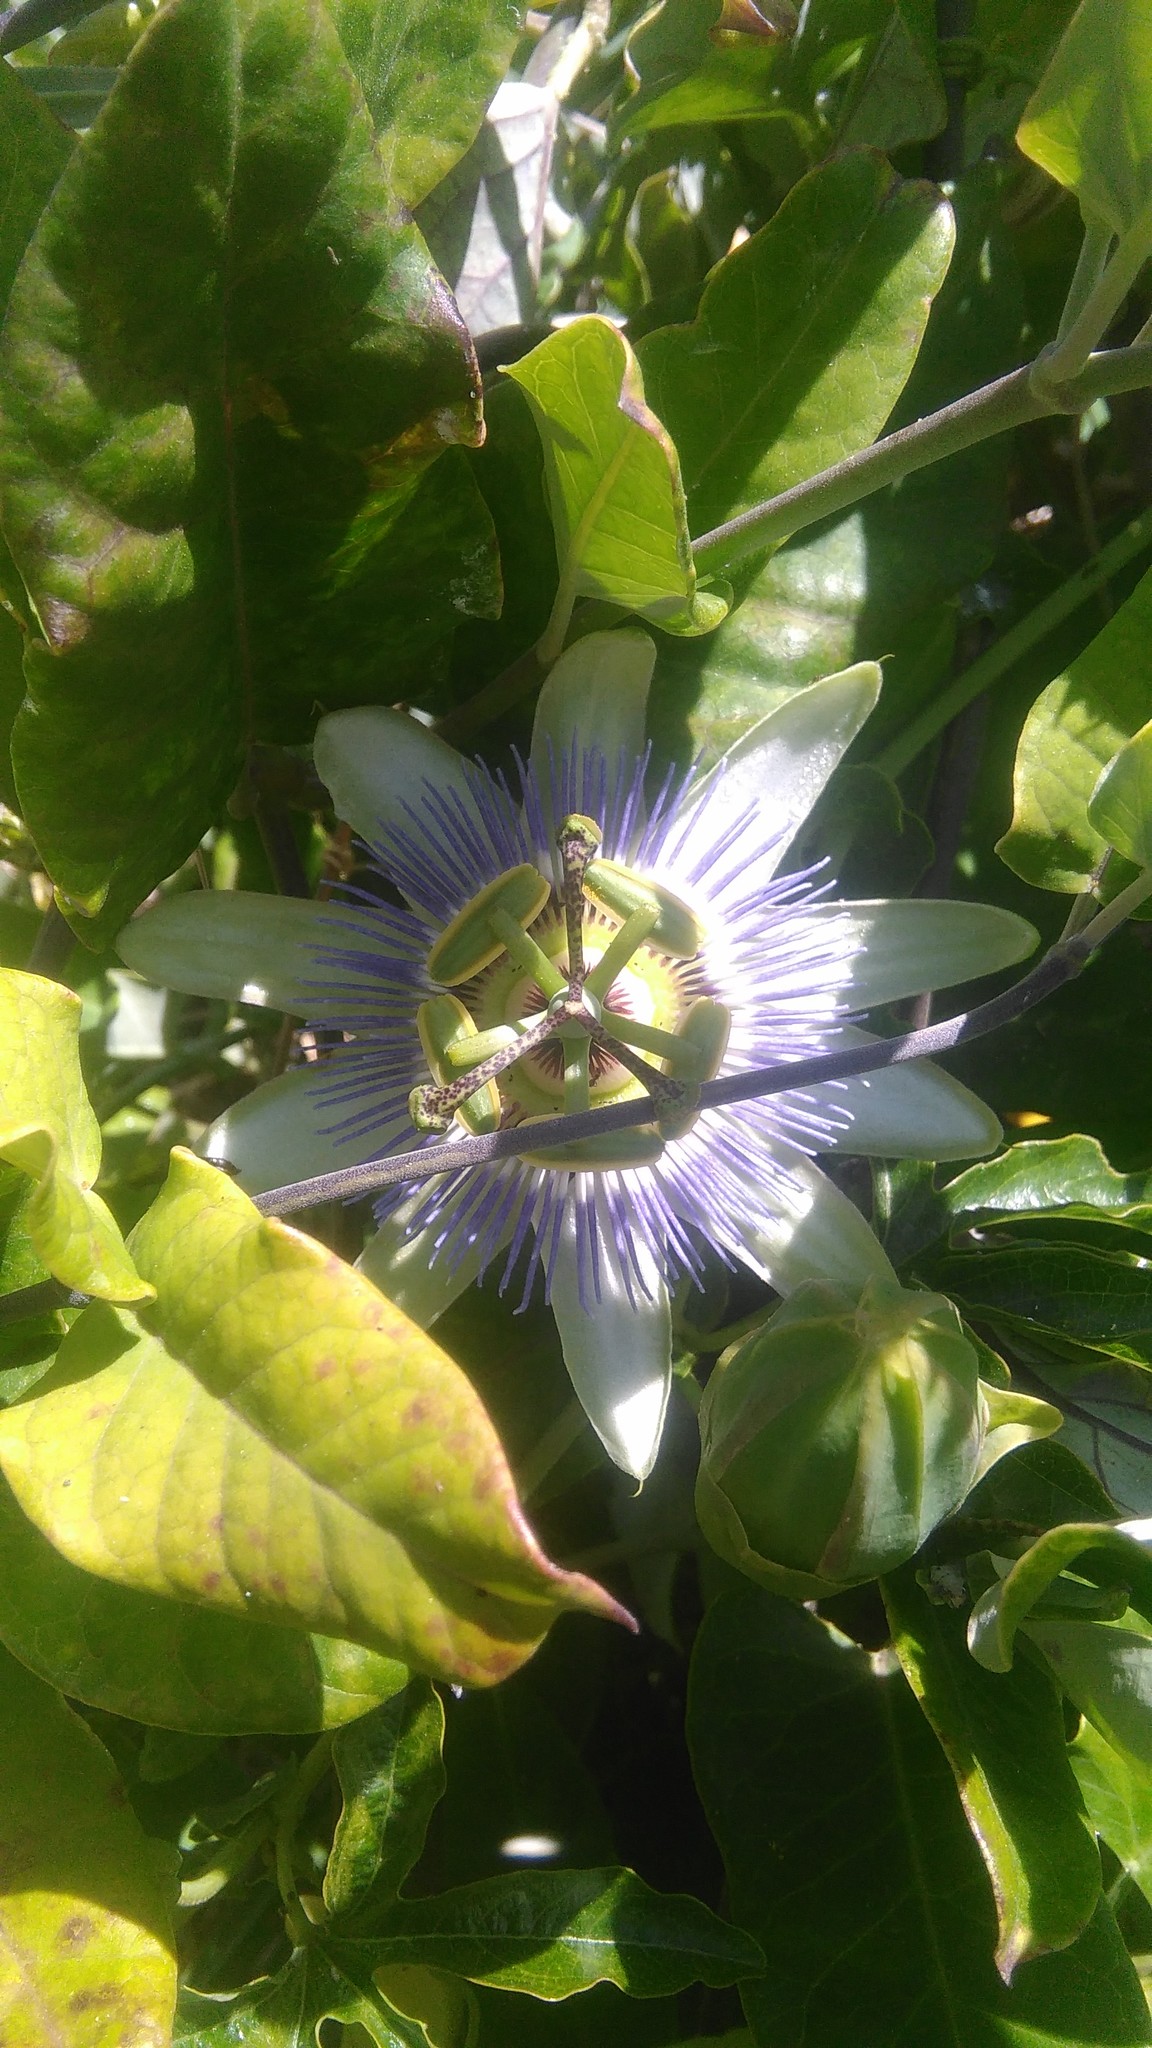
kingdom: Plantae
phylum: Tracheophyta
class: Magnoliopsida
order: Malpighiales
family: Passifloraceae
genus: Passiflora
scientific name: Passiflora caerulea
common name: Blue passionflower
